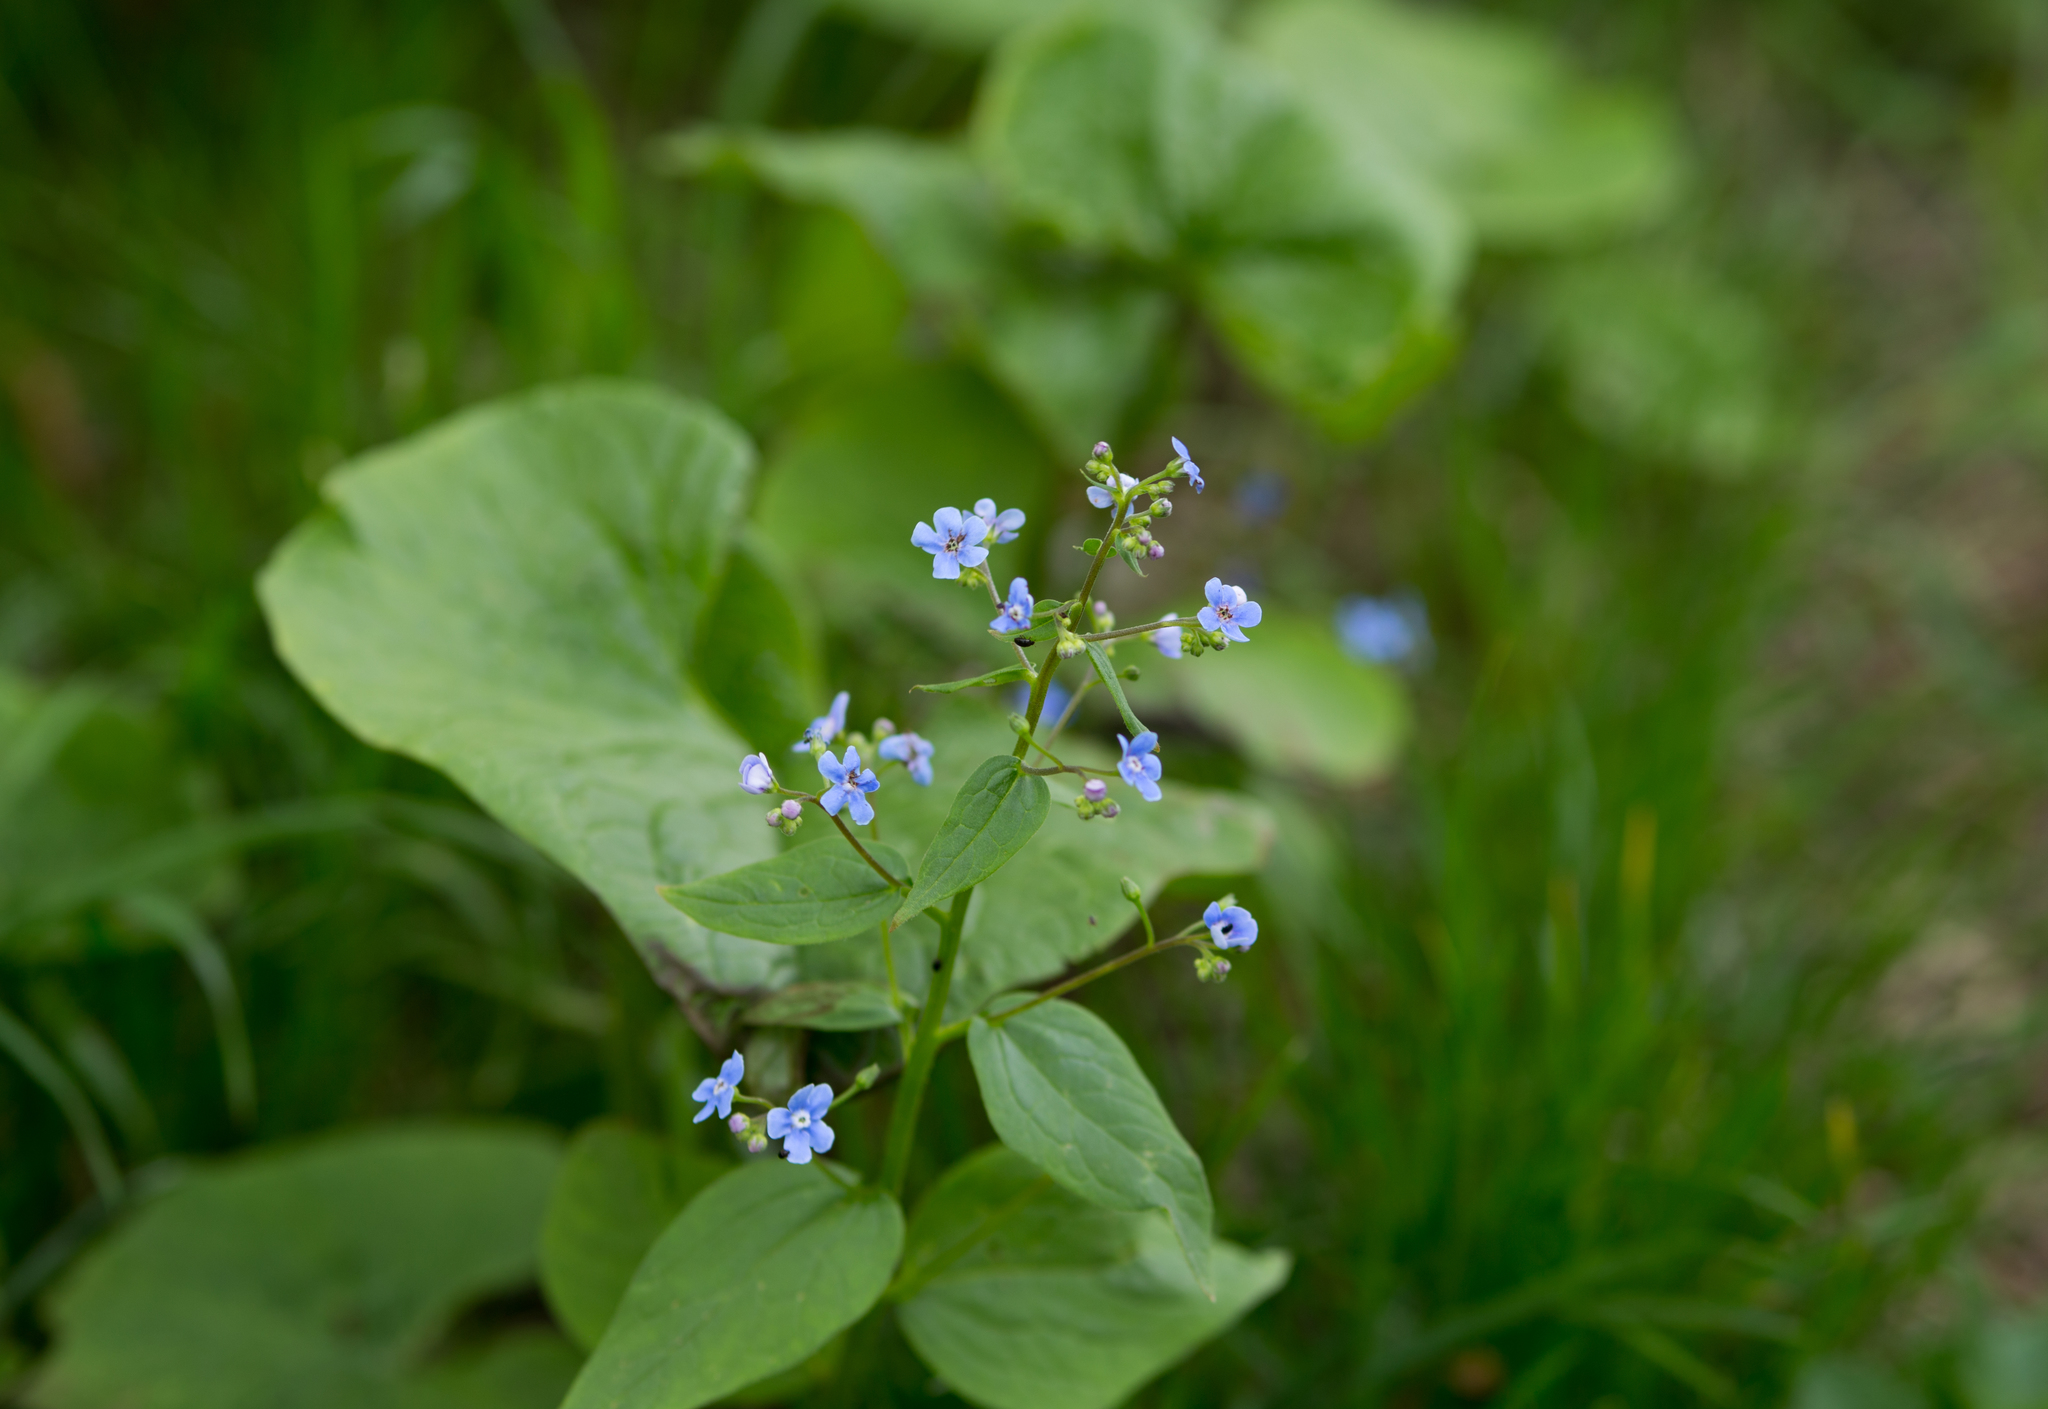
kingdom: Plantae
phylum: Tracheophyta
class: Magnoliopsida
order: Boraginales
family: Boraginaceae
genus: Brunnera
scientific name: Brunnera sibirica
